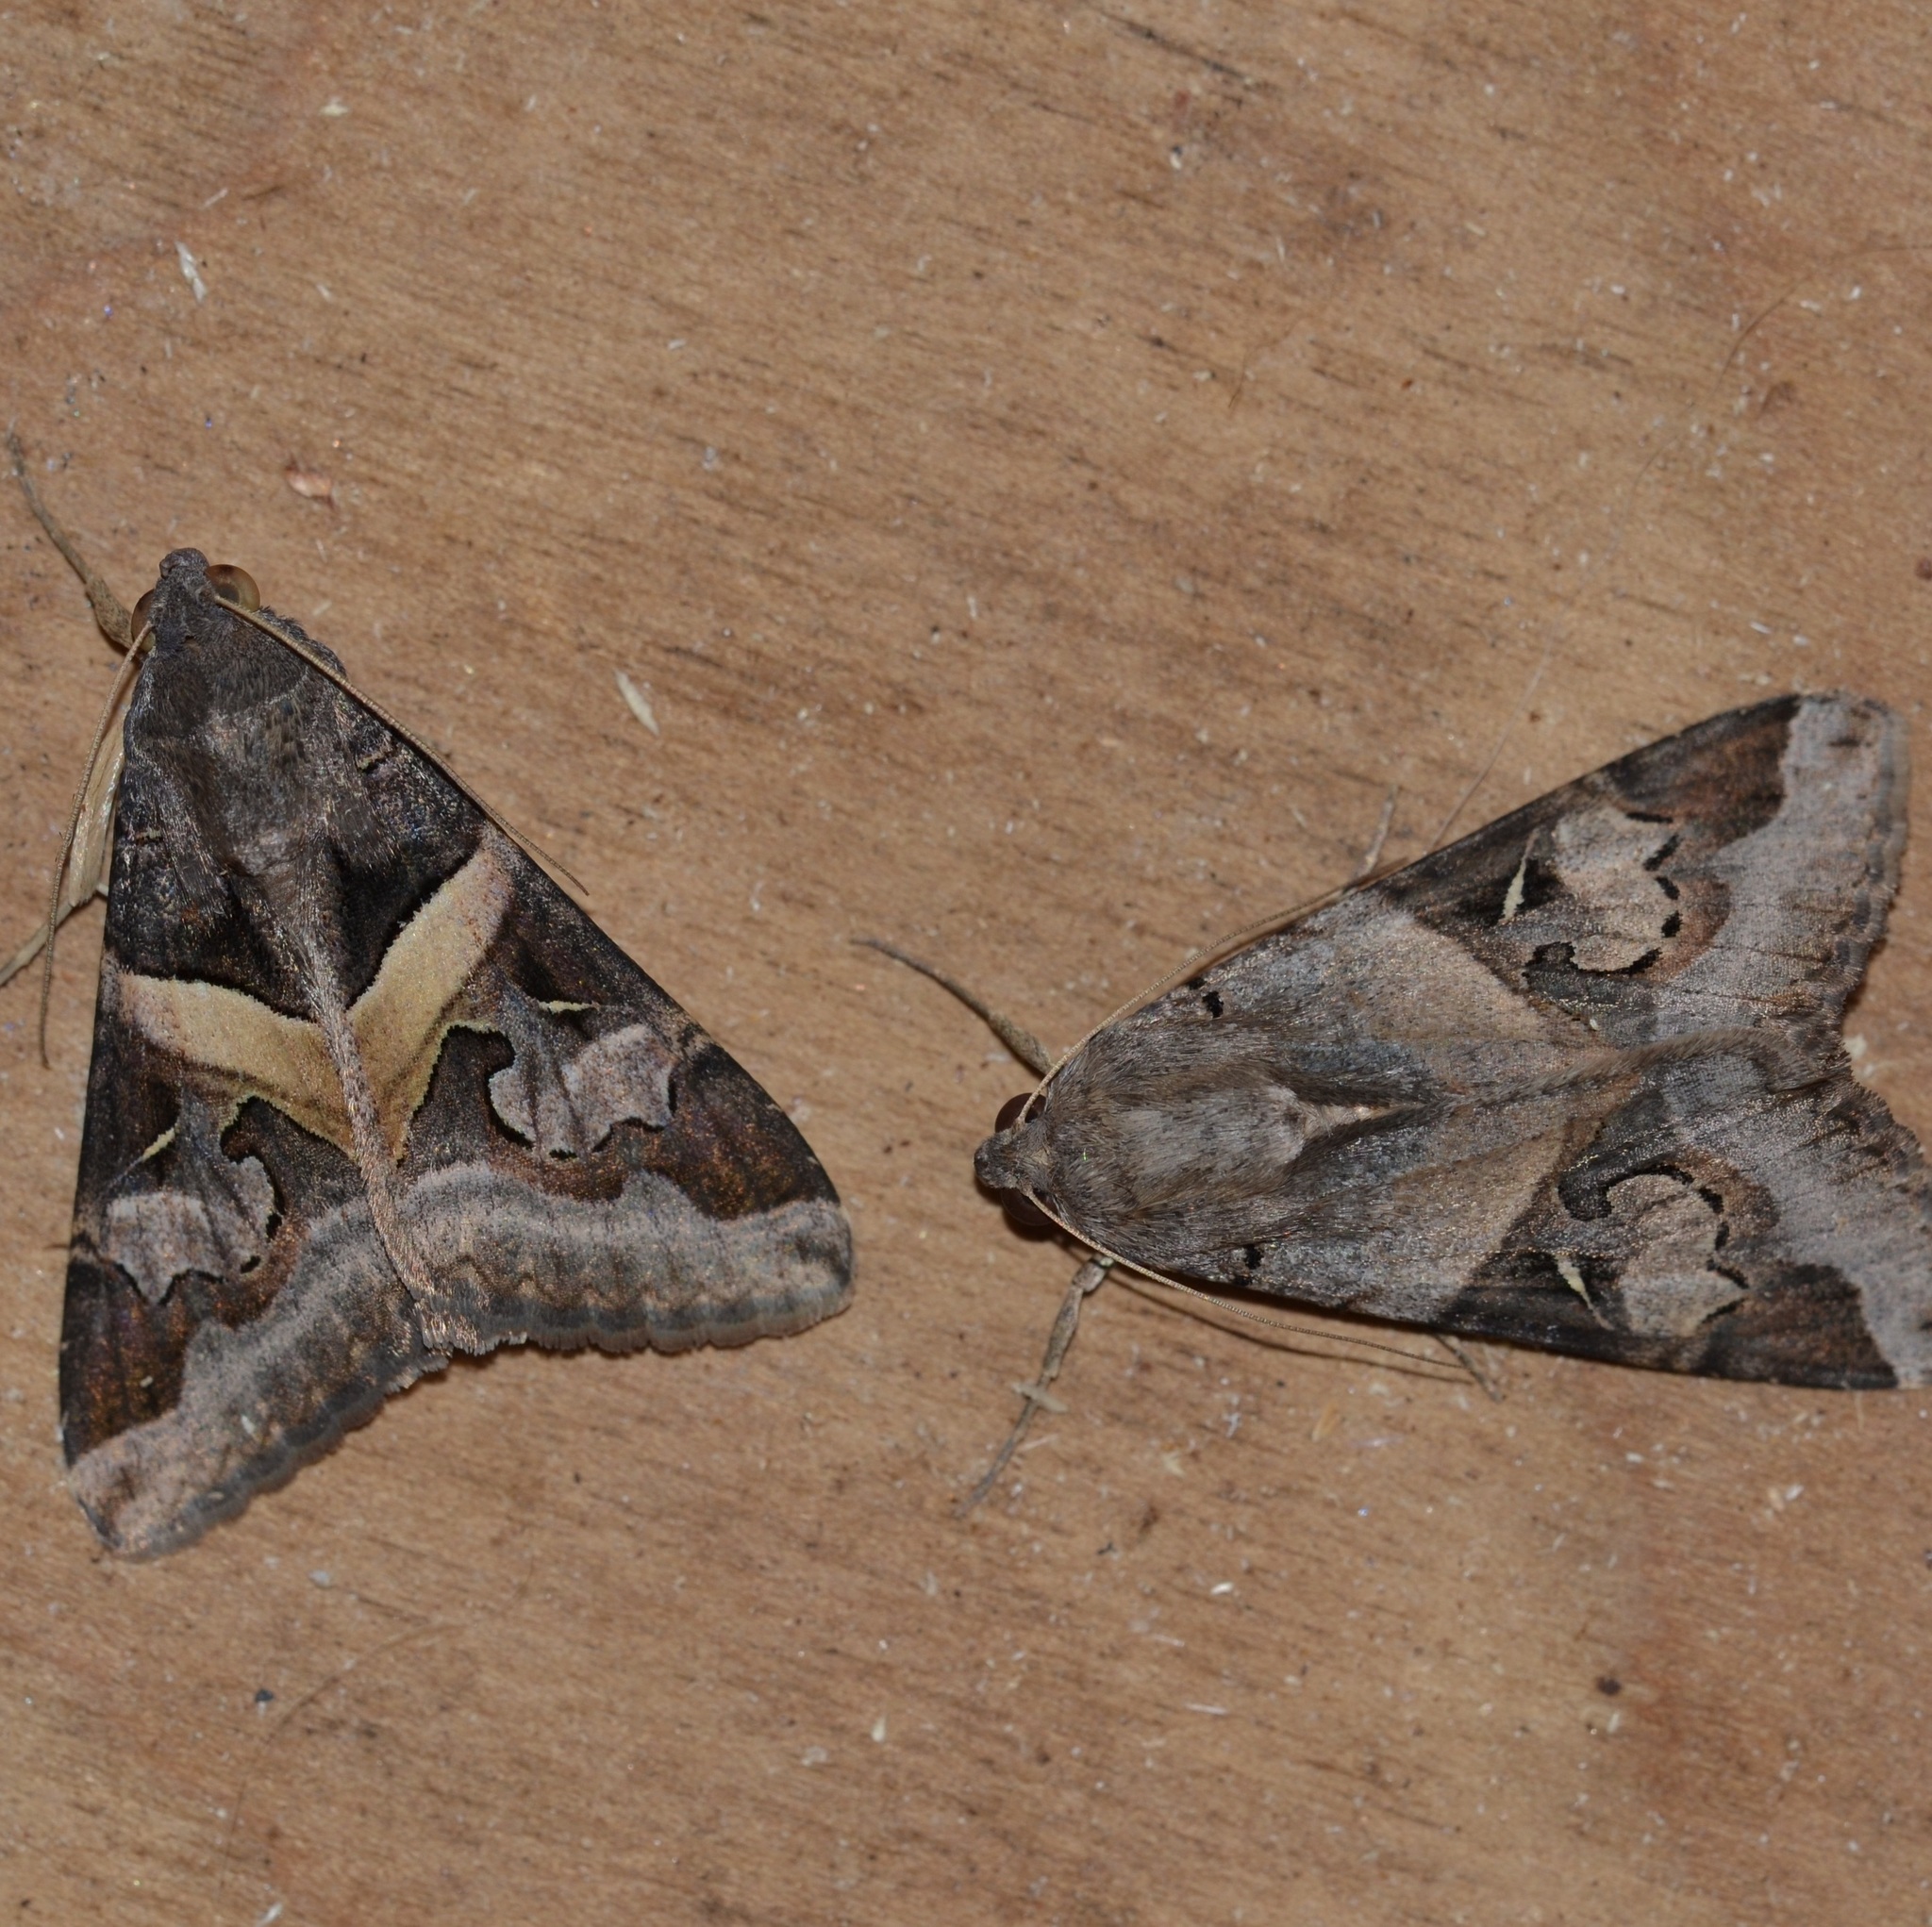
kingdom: Animalia
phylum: Arthropoda
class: Insecta
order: Lepidoptera
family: Erebidae
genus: Melipotis
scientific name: Melipotis indomita
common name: Moth
